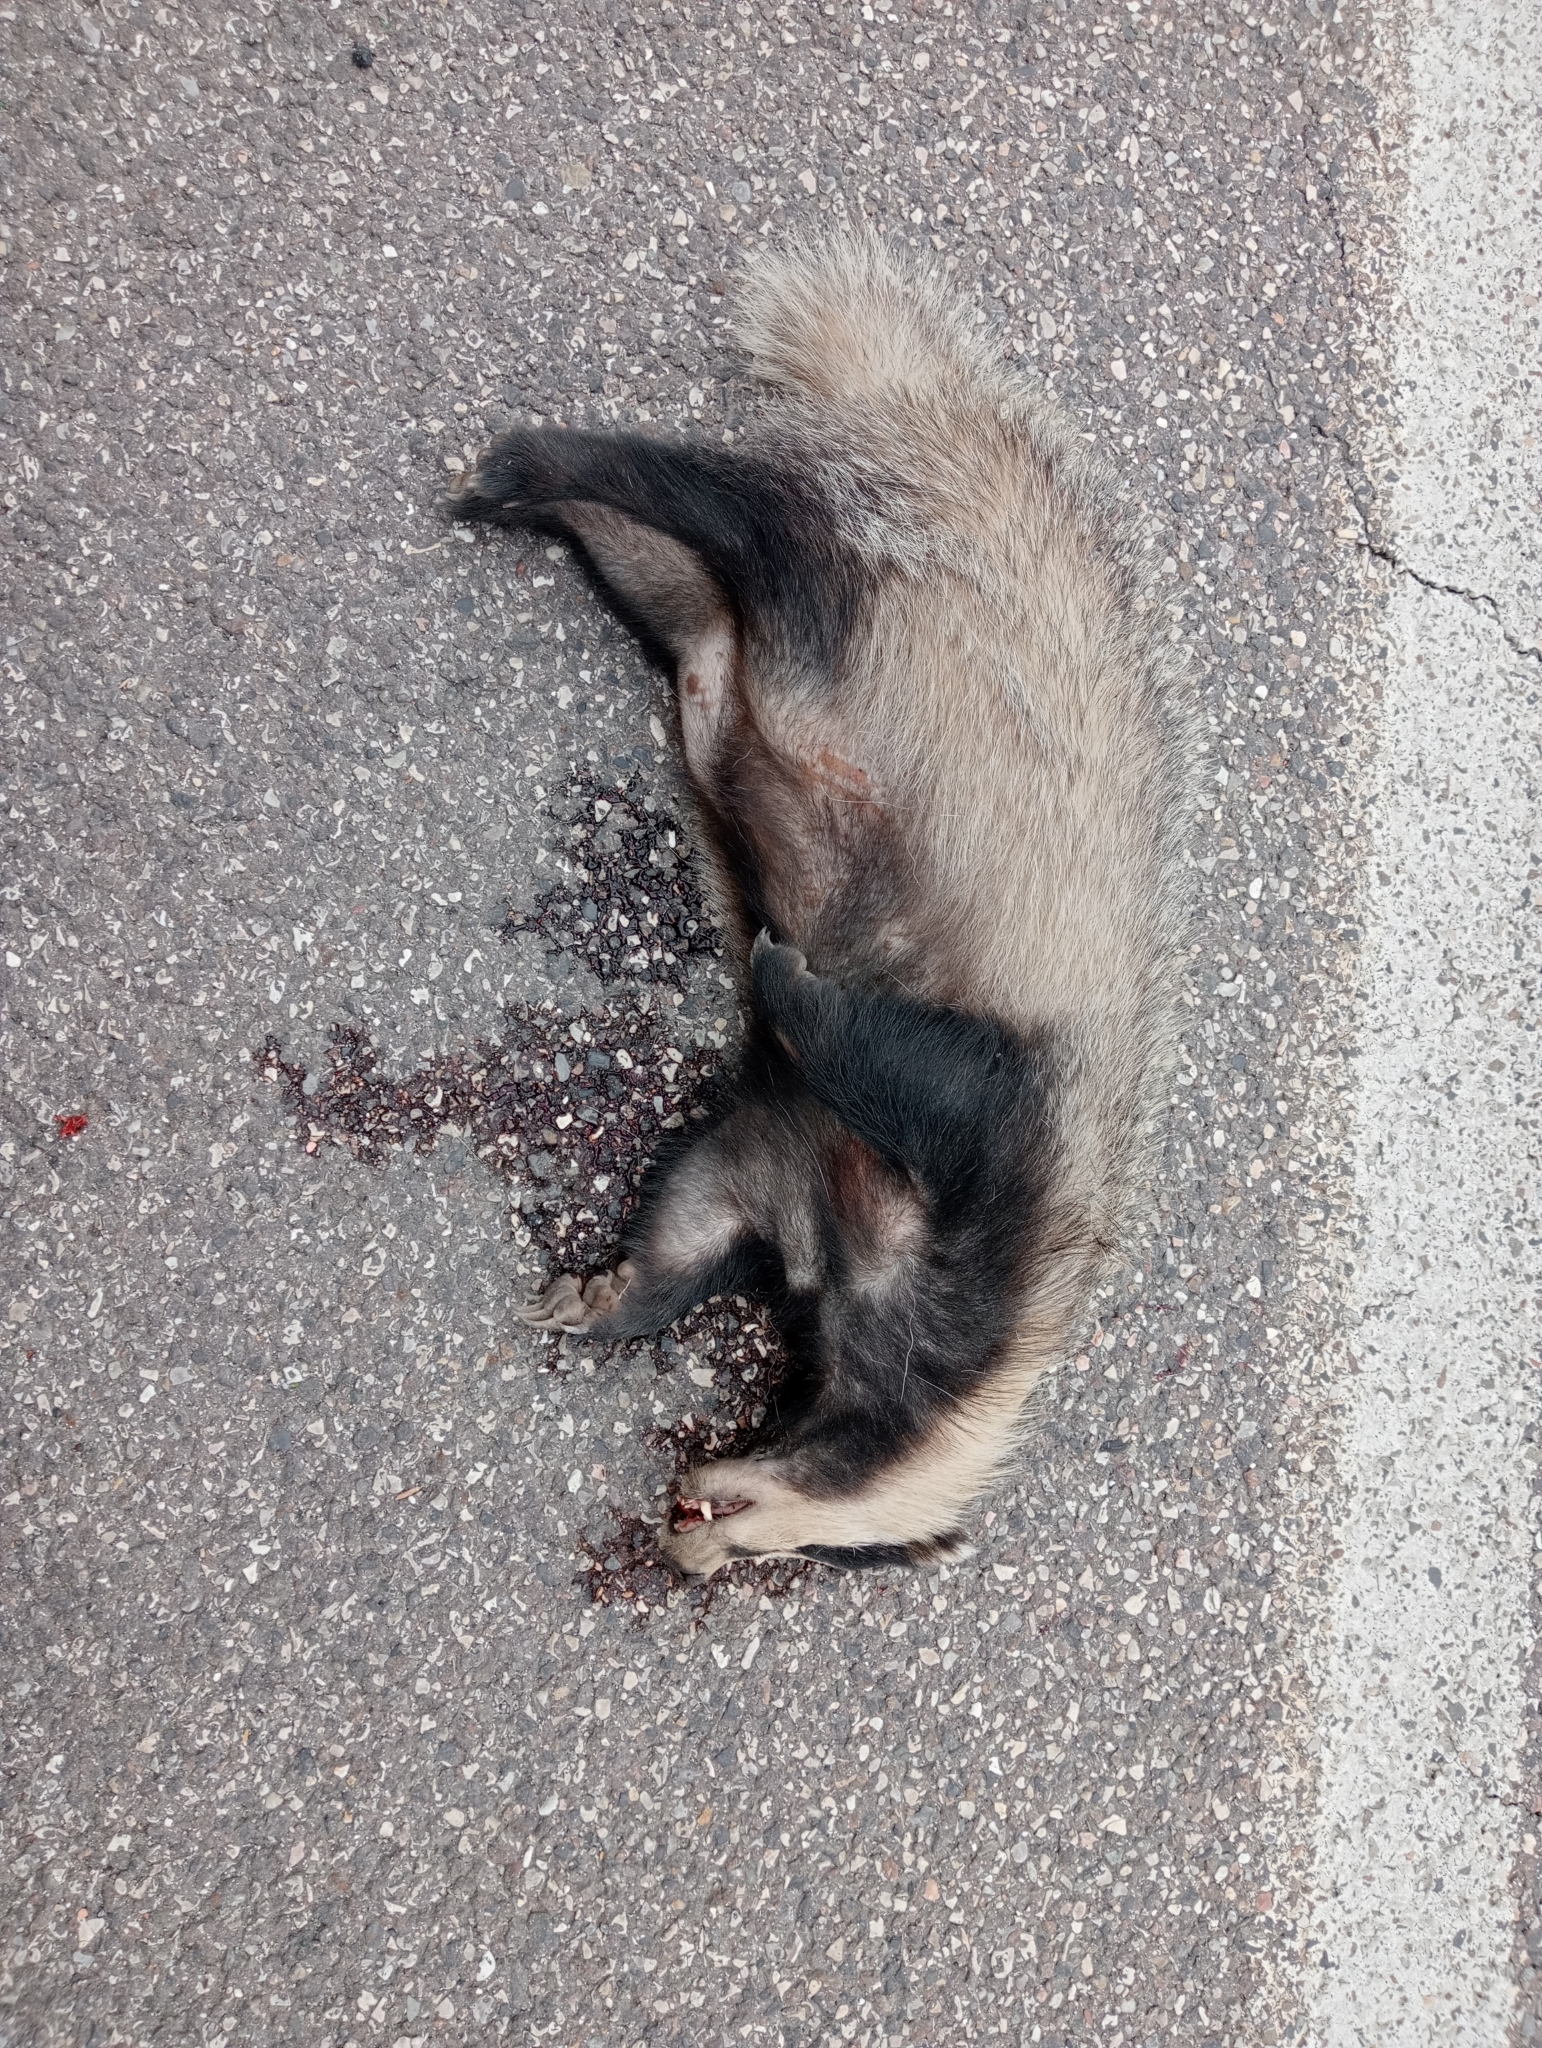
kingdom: Animalia
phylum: Chordata
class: Mammalia
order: Carnivora
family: Mustelidae
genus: Meles
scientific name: Meles meles
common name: Eurasian badger
